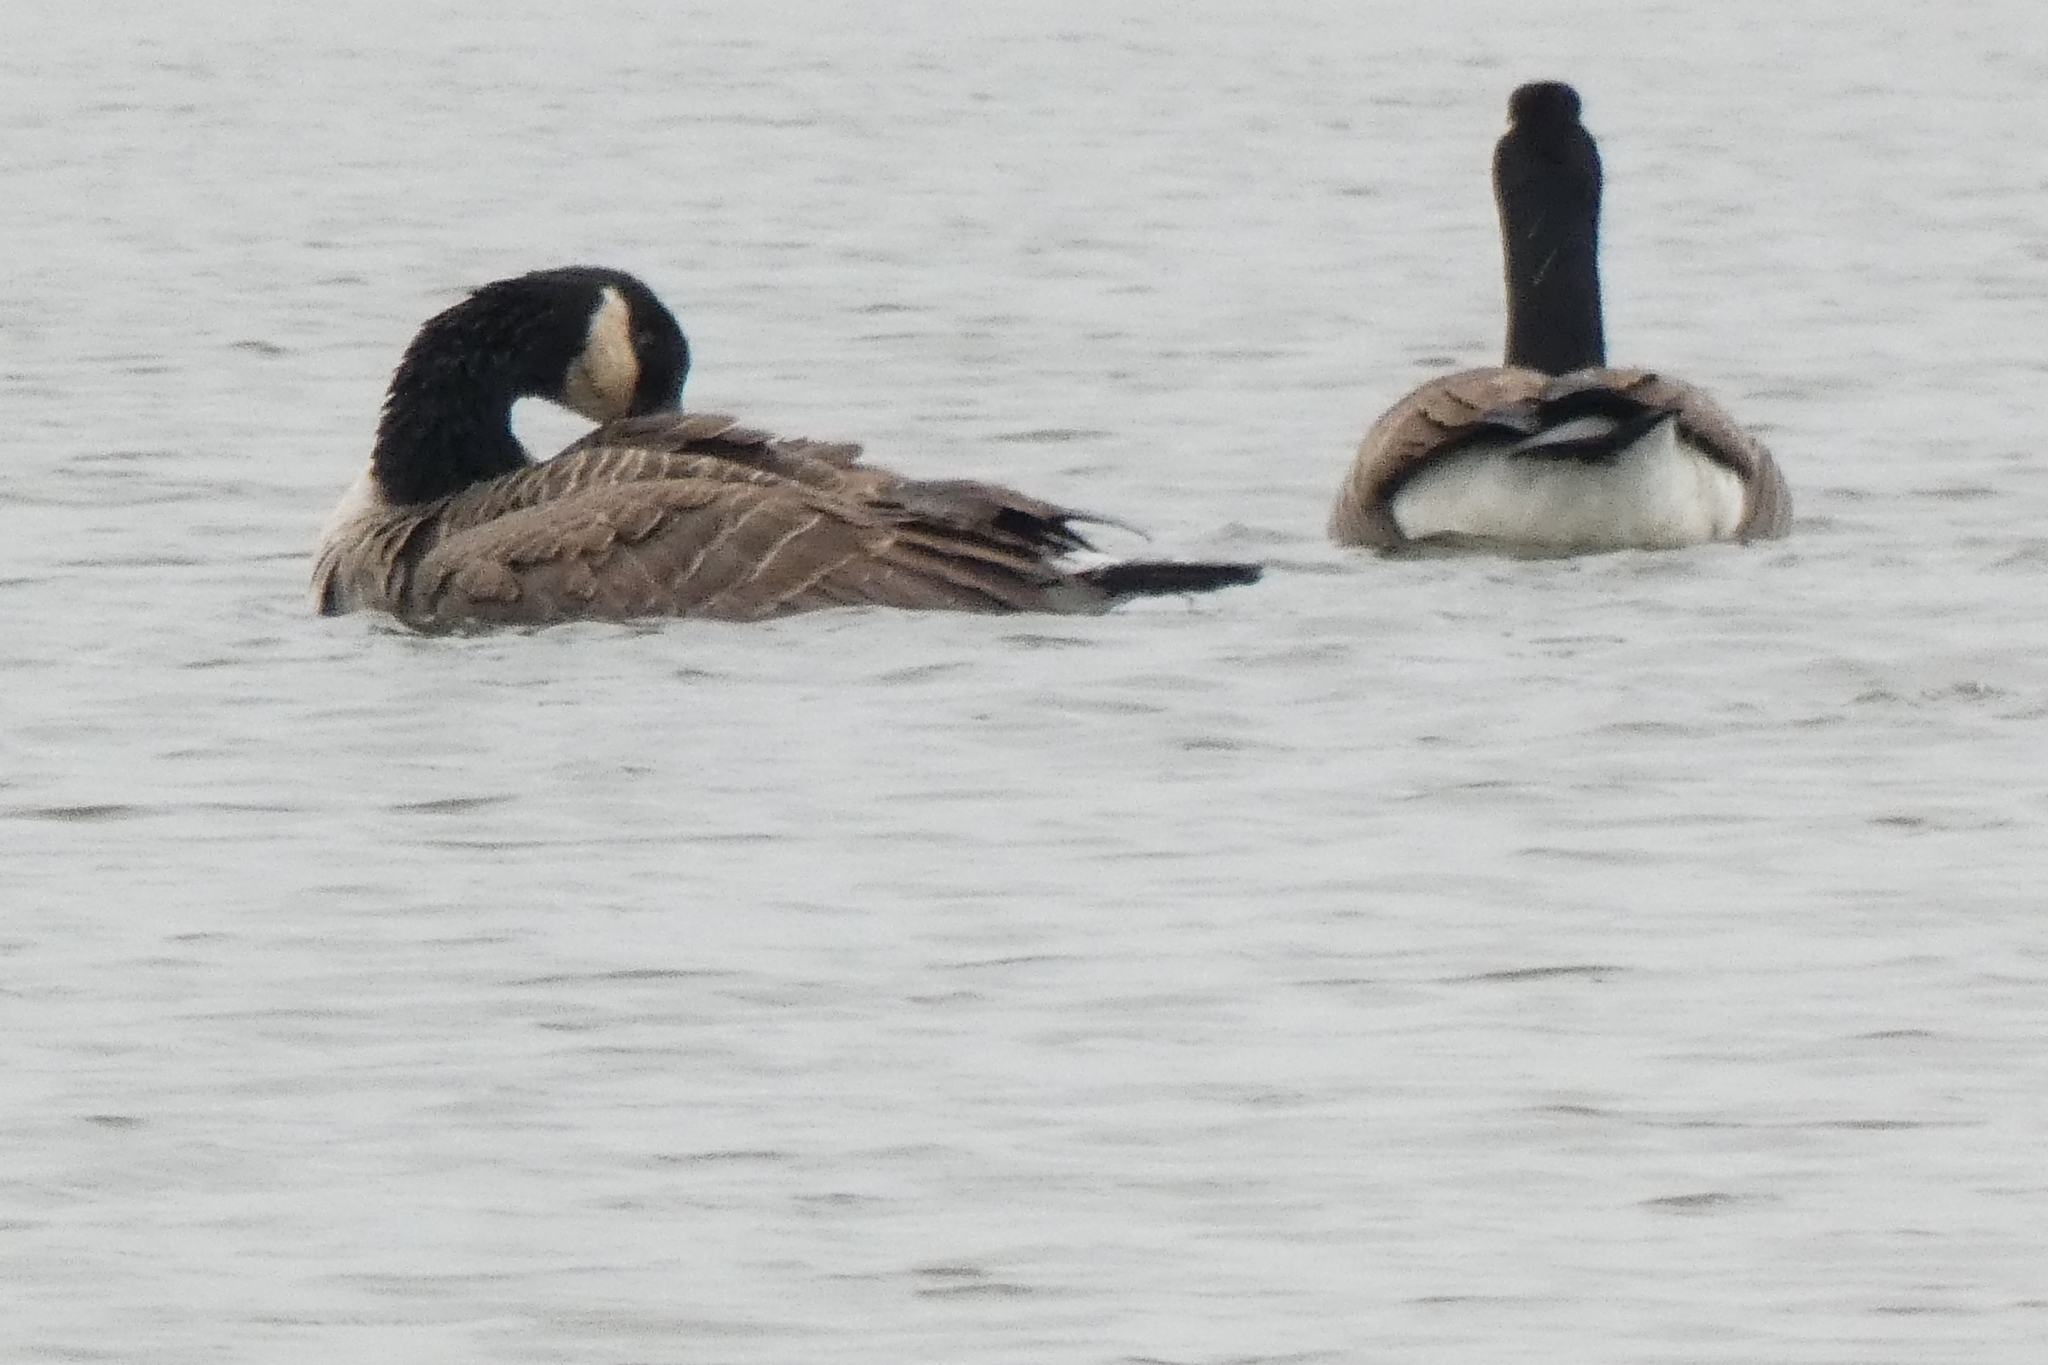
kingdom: Animalia
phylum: Chordata
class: Aves
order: Anseriformes
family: Anatidae
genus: Branta
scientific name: Branta canadensis
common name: Canada goose
